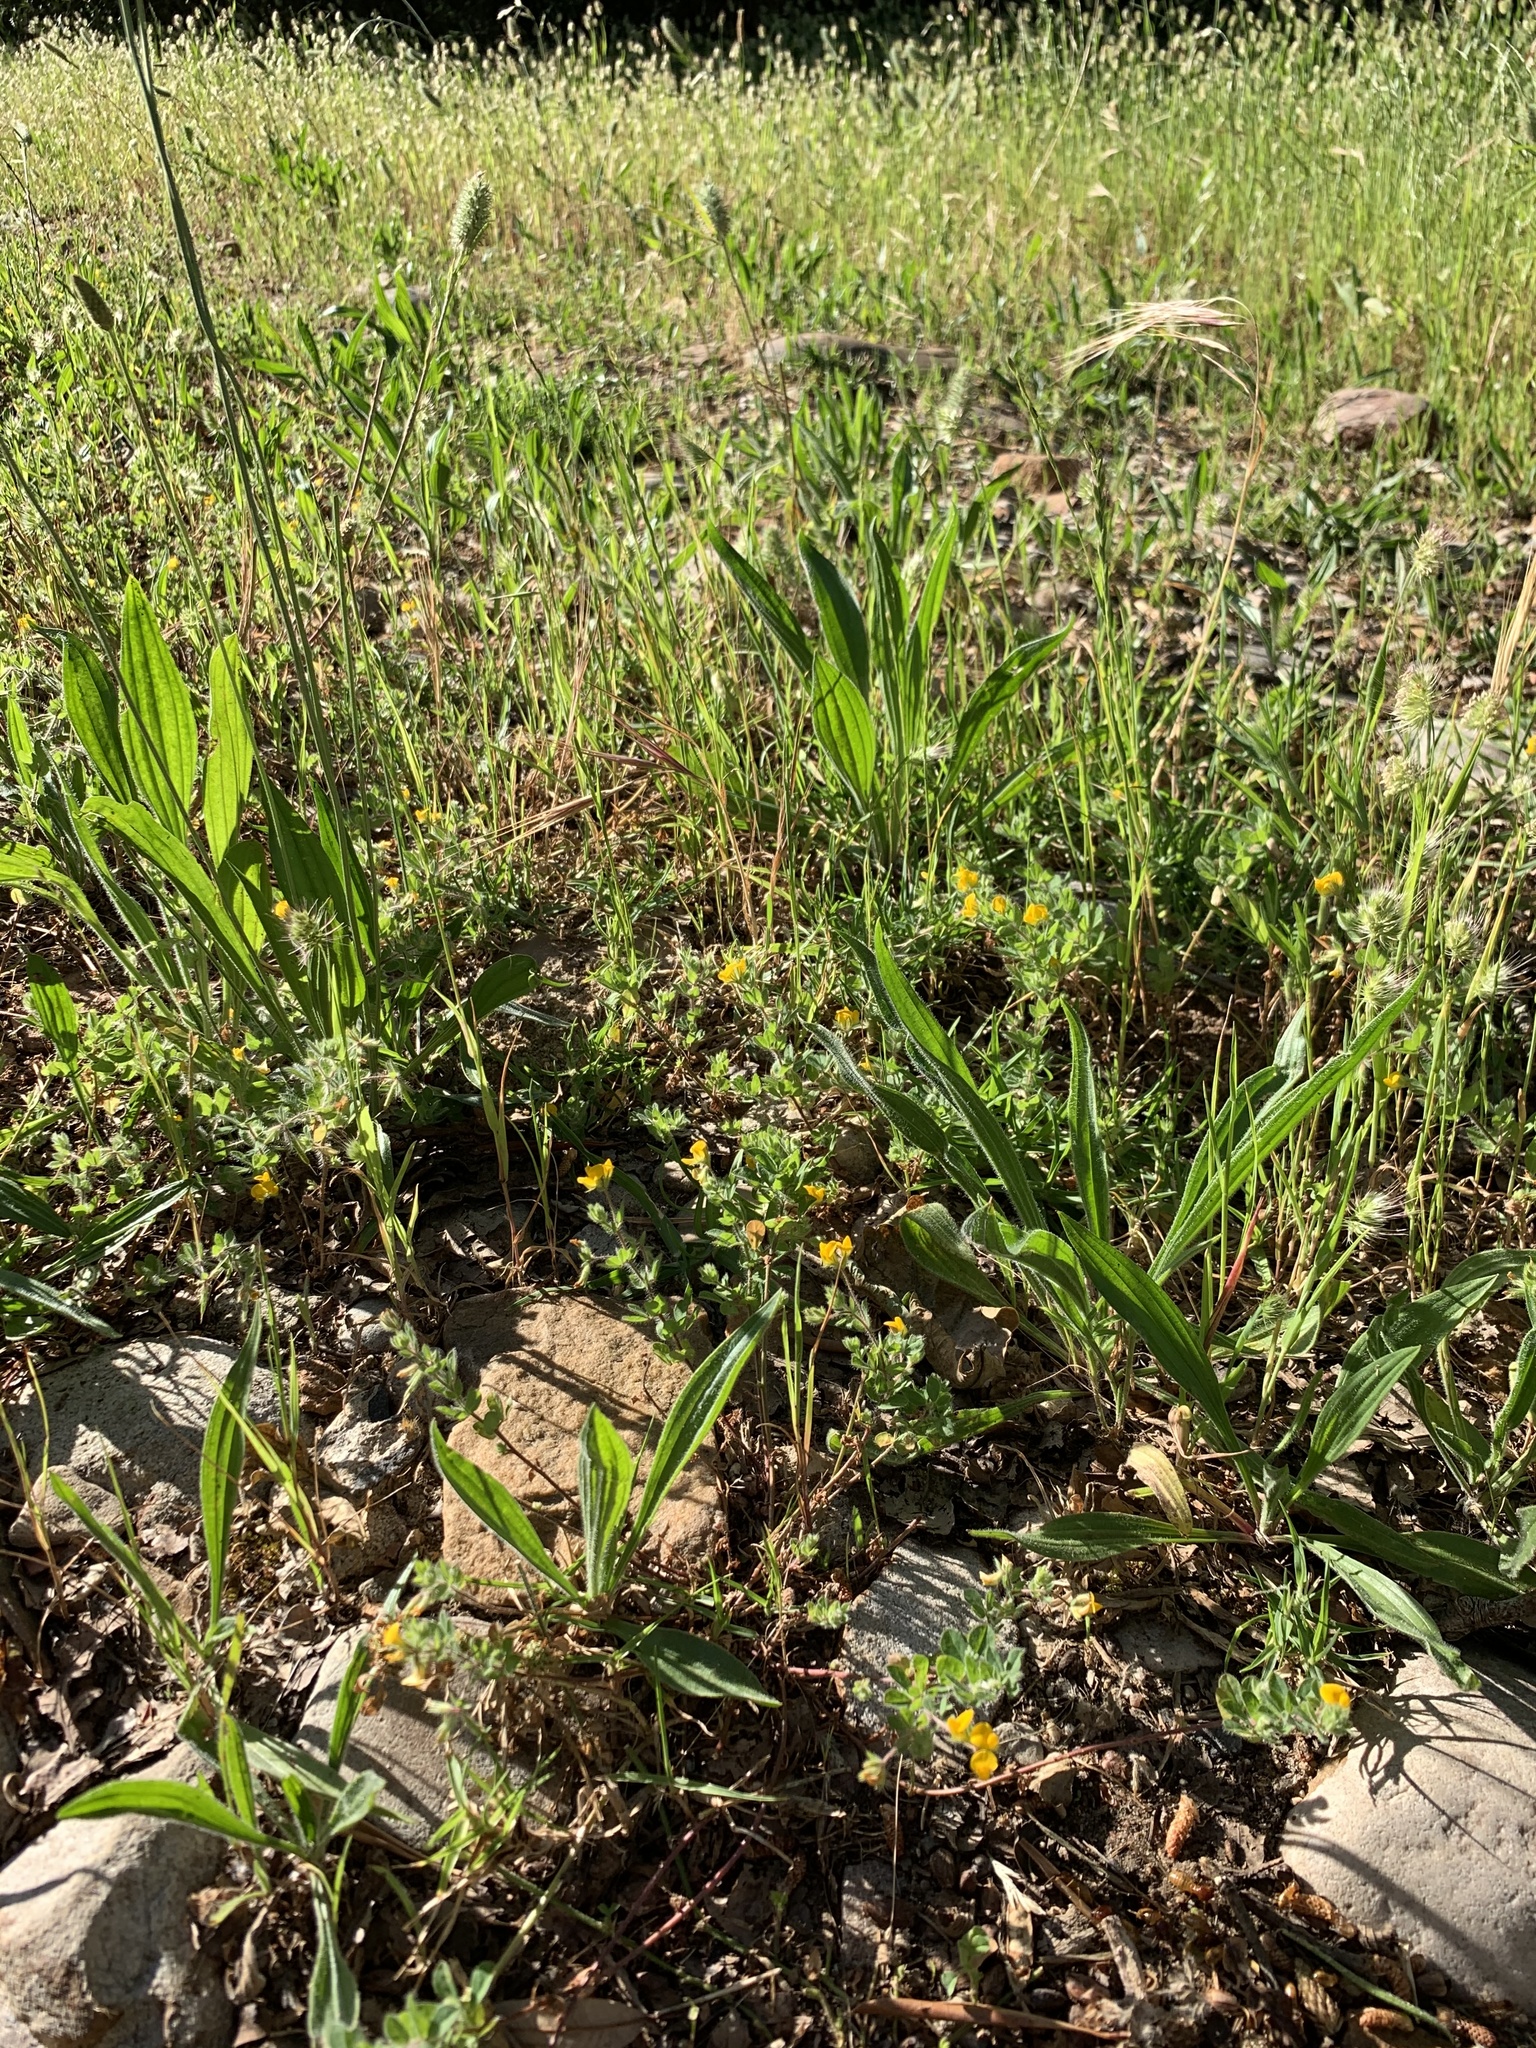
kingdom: Plantae
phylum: Tracheophyta
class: Magnoliopsida
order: Fabales
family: Fabaceae
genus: Lotus
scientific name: Lotus subbiflorus
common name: Hairy bird's-foot trefoil
